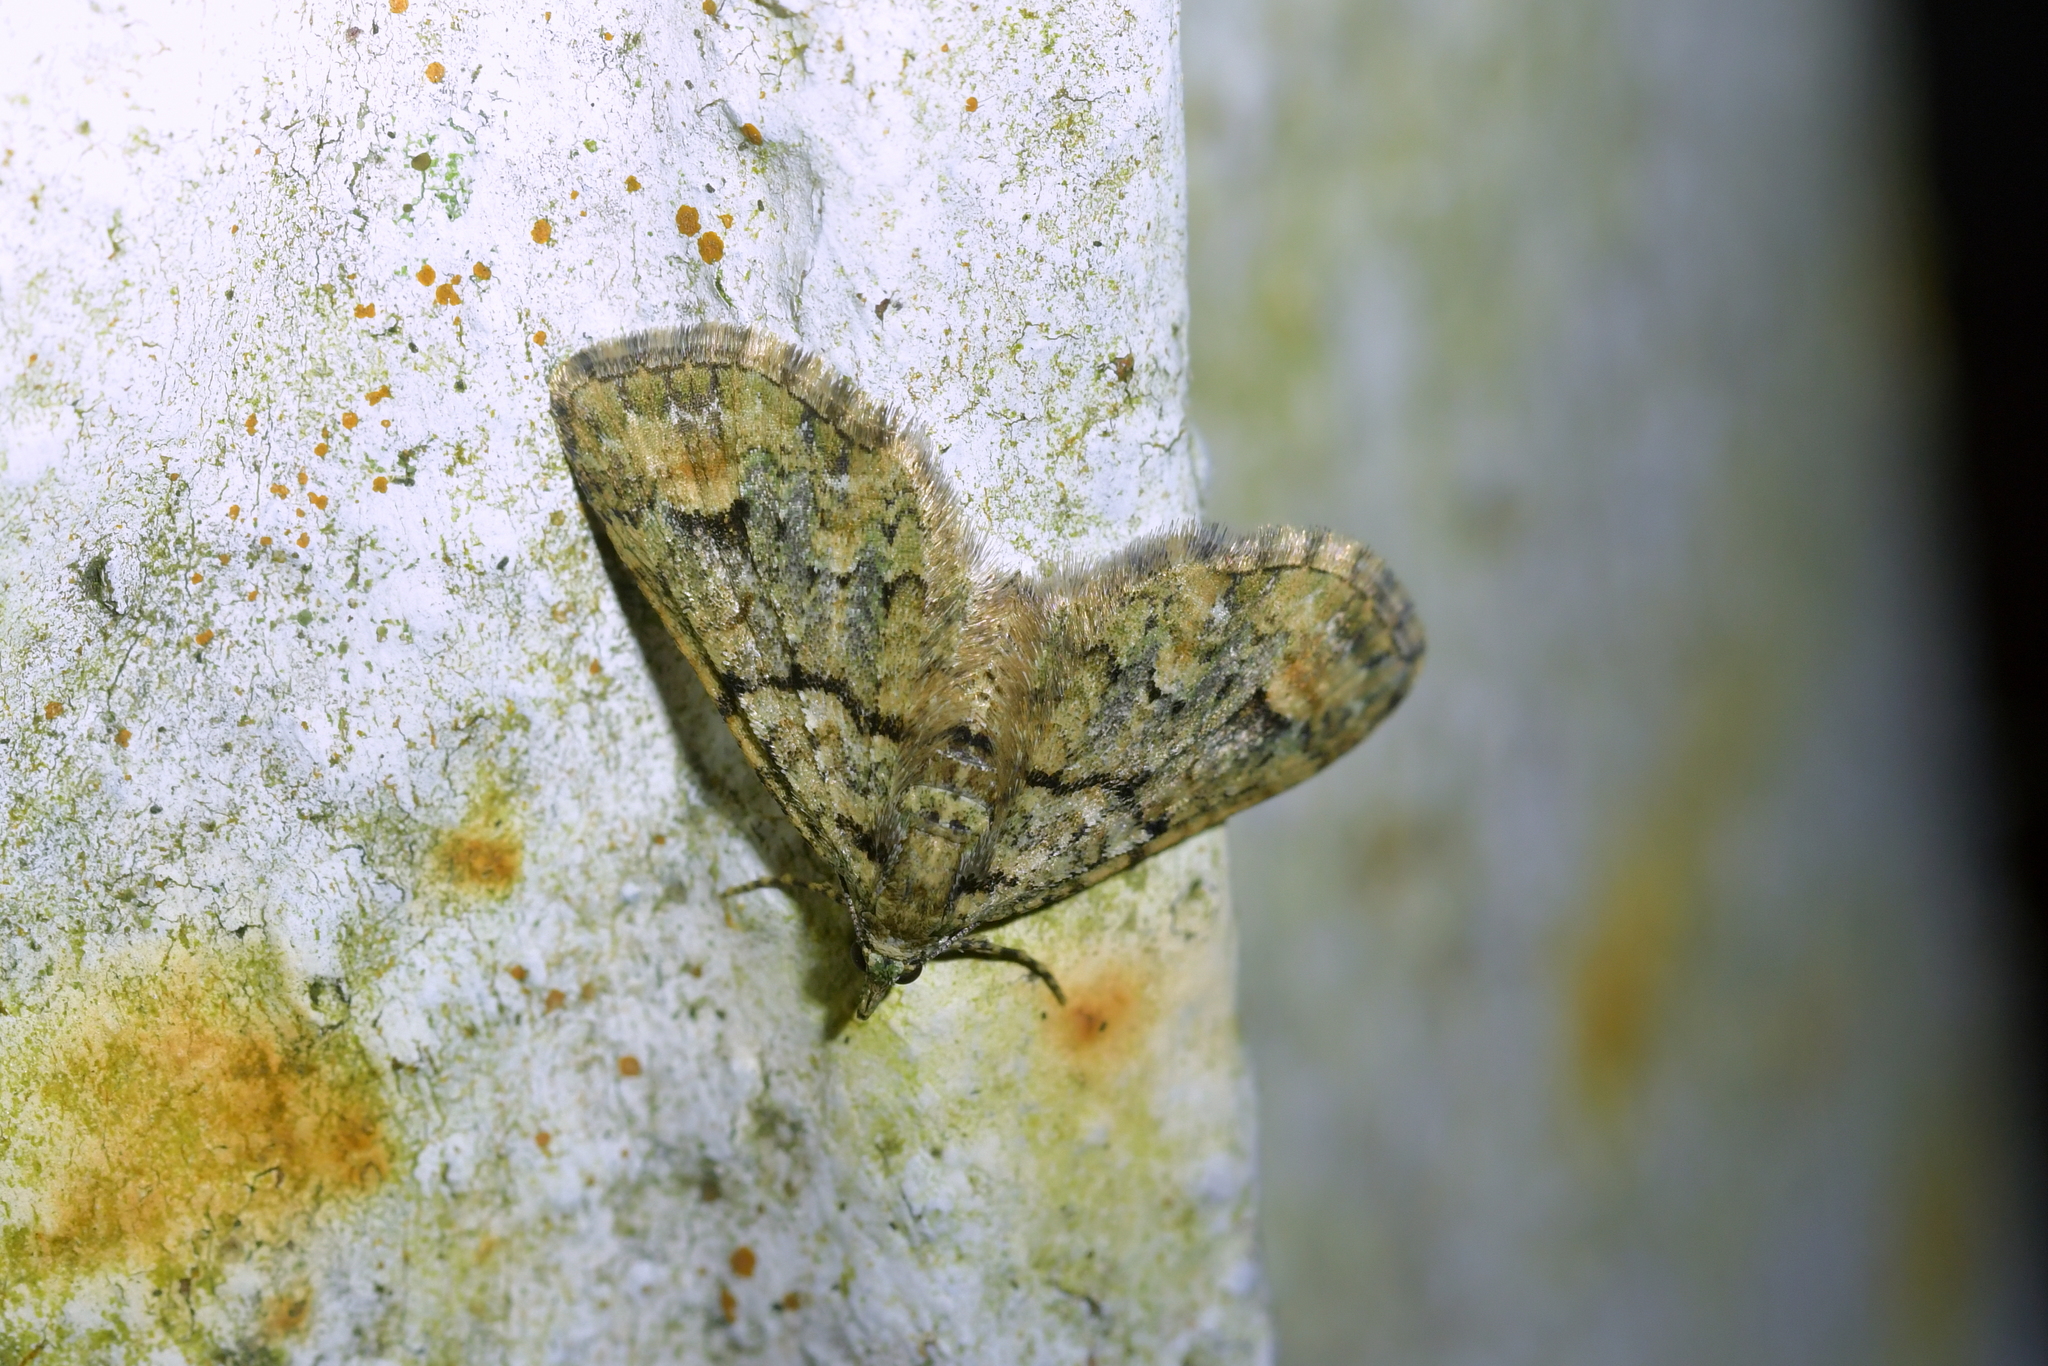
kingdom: Animalia
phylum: Arthropoda
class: Insecta
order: Lepidoptera
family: Geometridae
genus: Idaea
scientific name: Idaea mutanda
